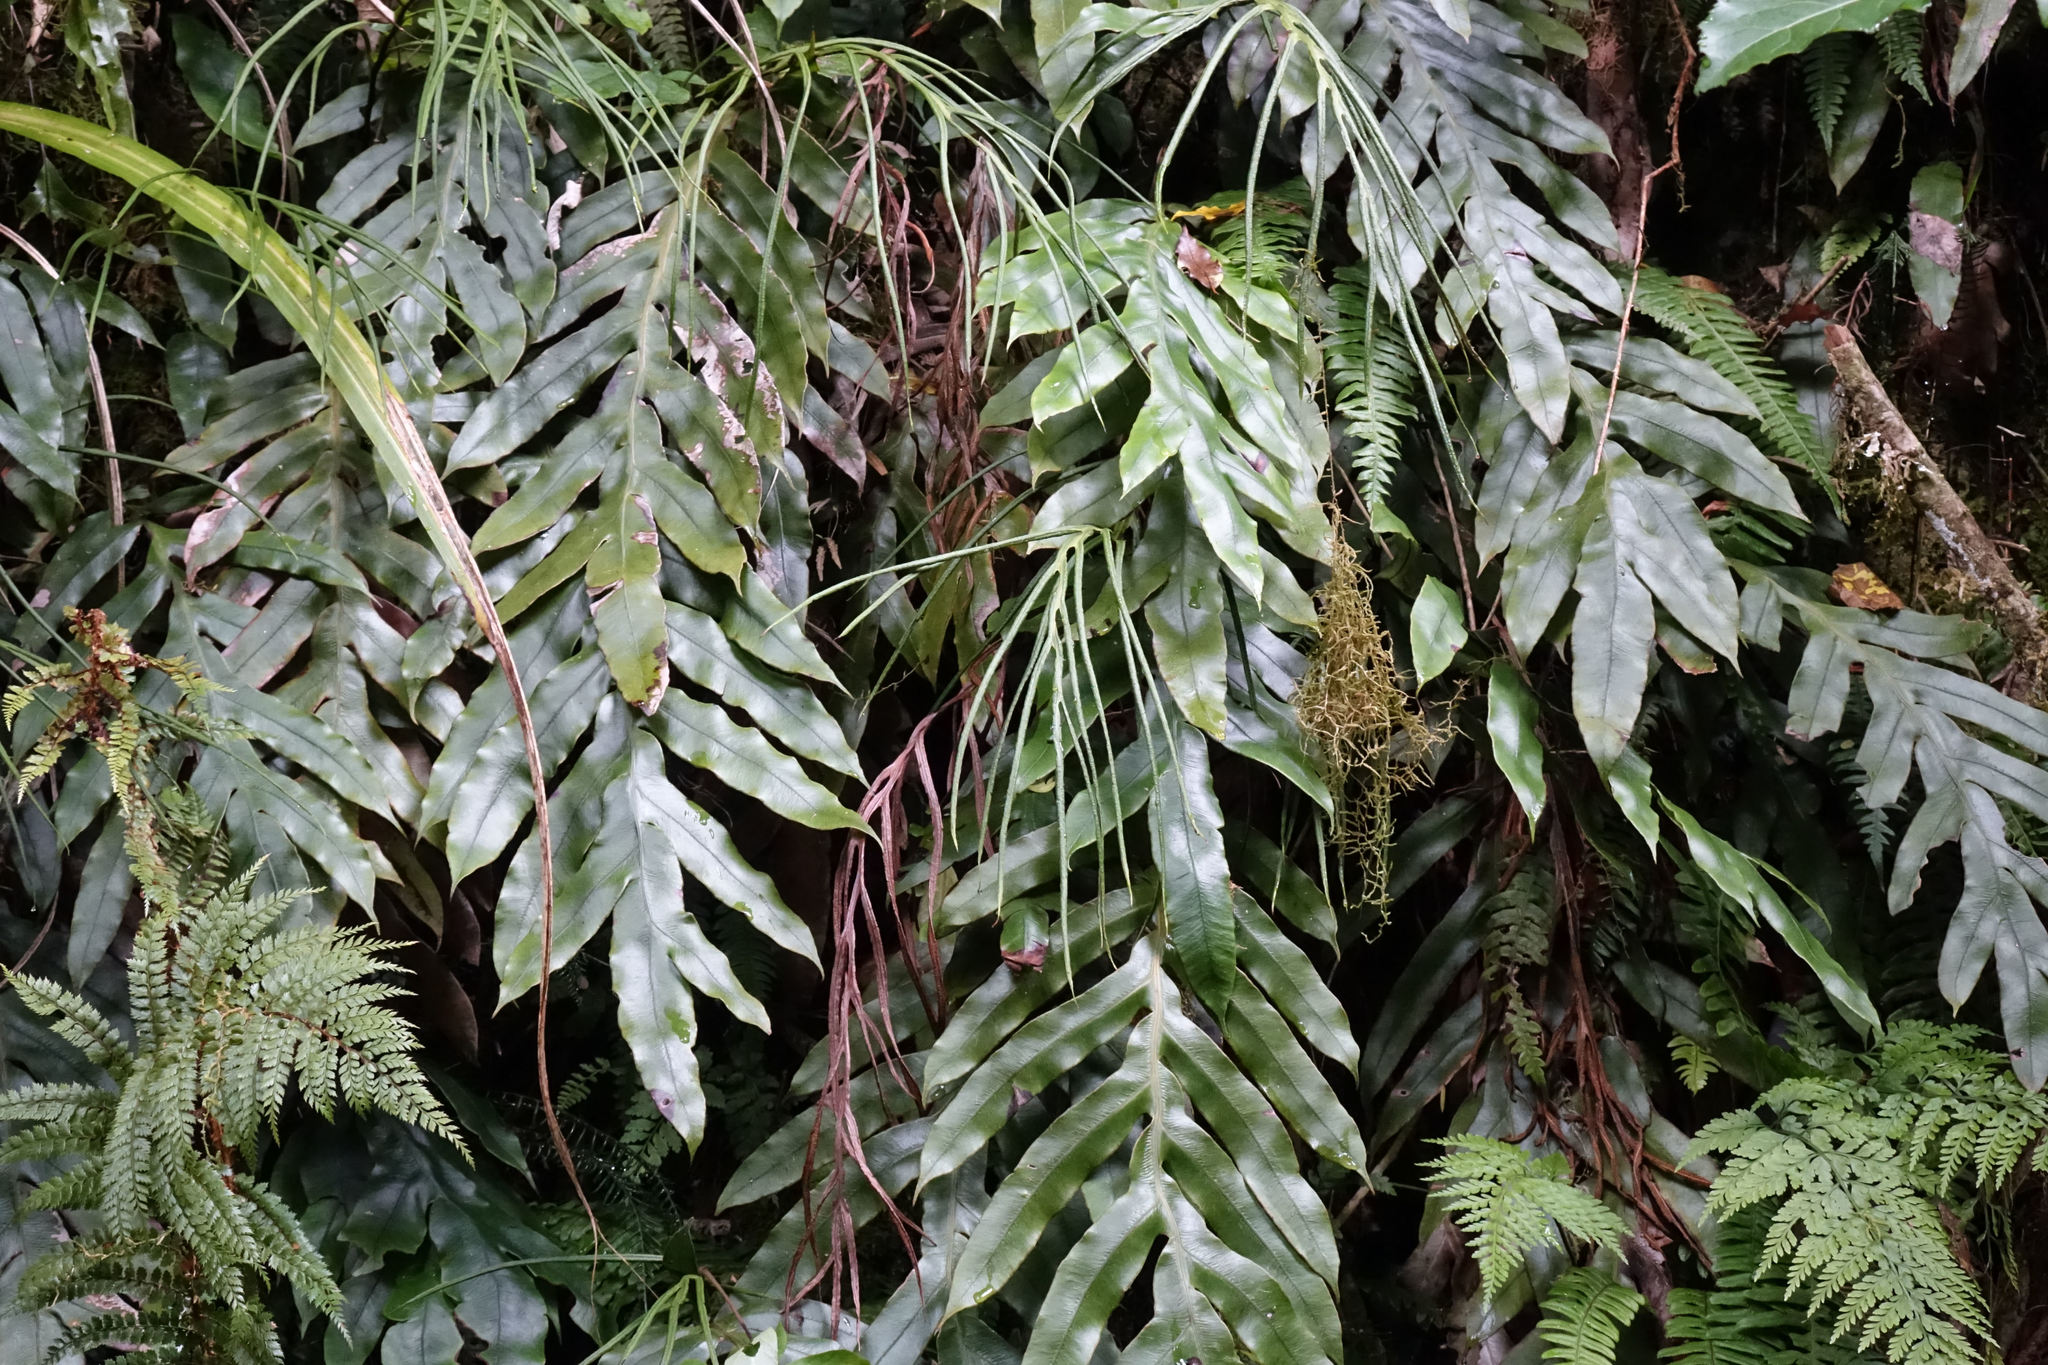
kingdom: Plantae
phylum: Tracheophyta
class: Polypodiopsida
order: Polypodiales
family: Blechnaceae
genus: Austroblechnum
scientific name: Austroblechnum colensoi
